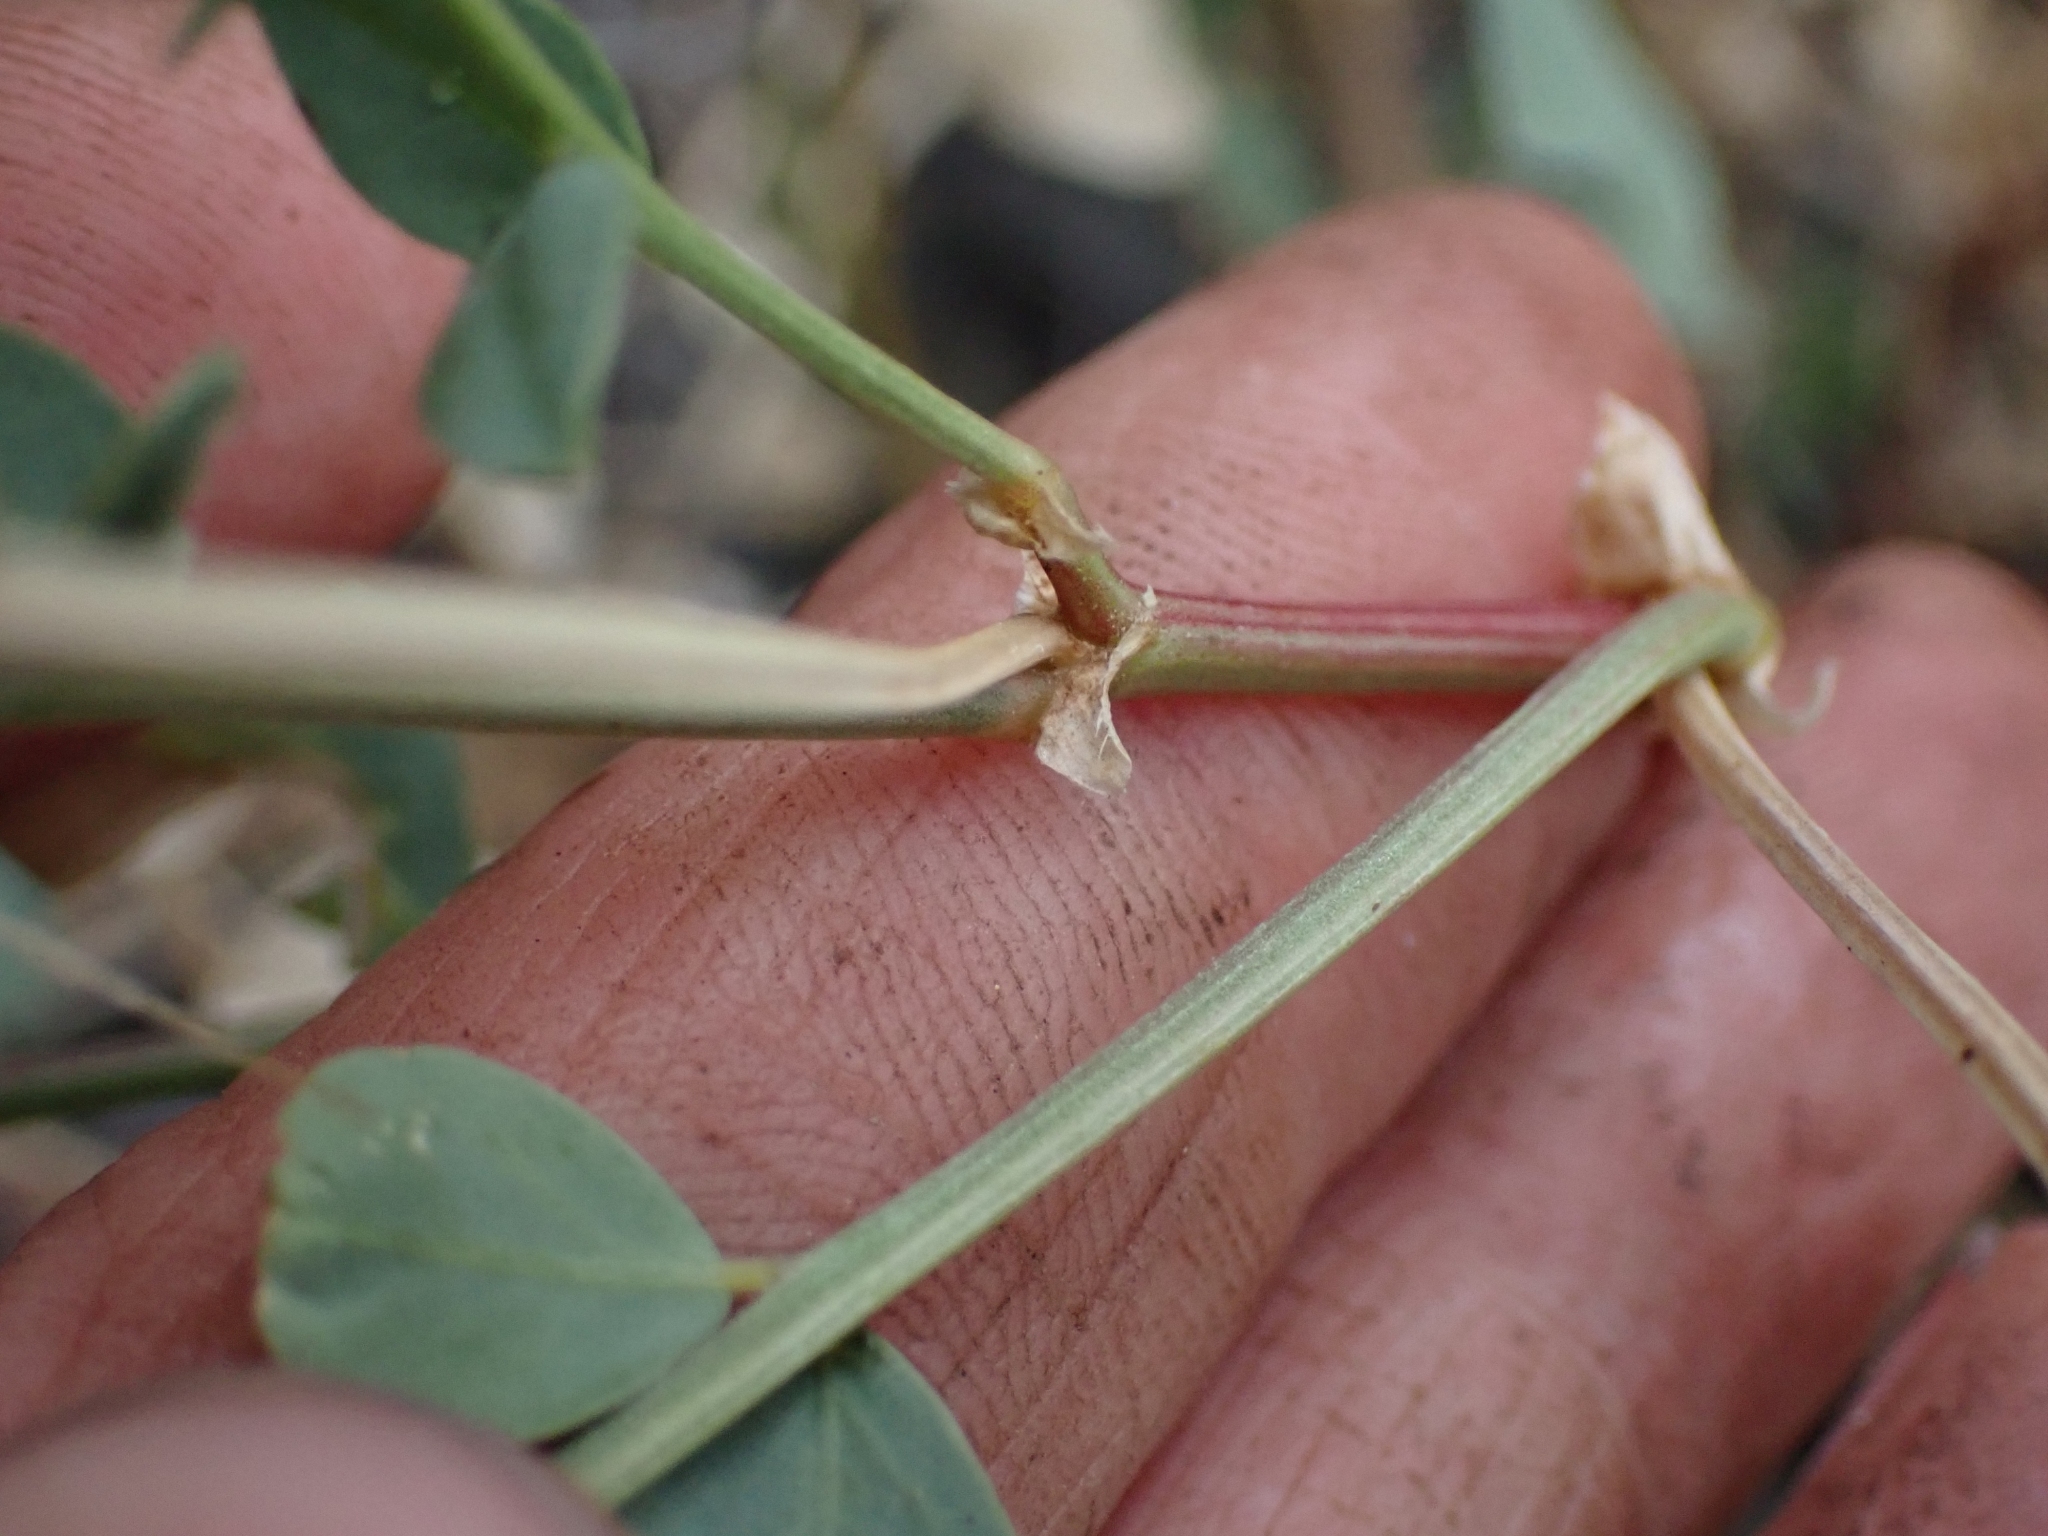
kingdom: Plantae
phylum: Tracheophyta
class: Magnoliopsida
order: Fabales
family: Fabaceae
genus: Astragalus
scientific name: Astragalus beckwithii
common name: Beckwith's milk-vetch
